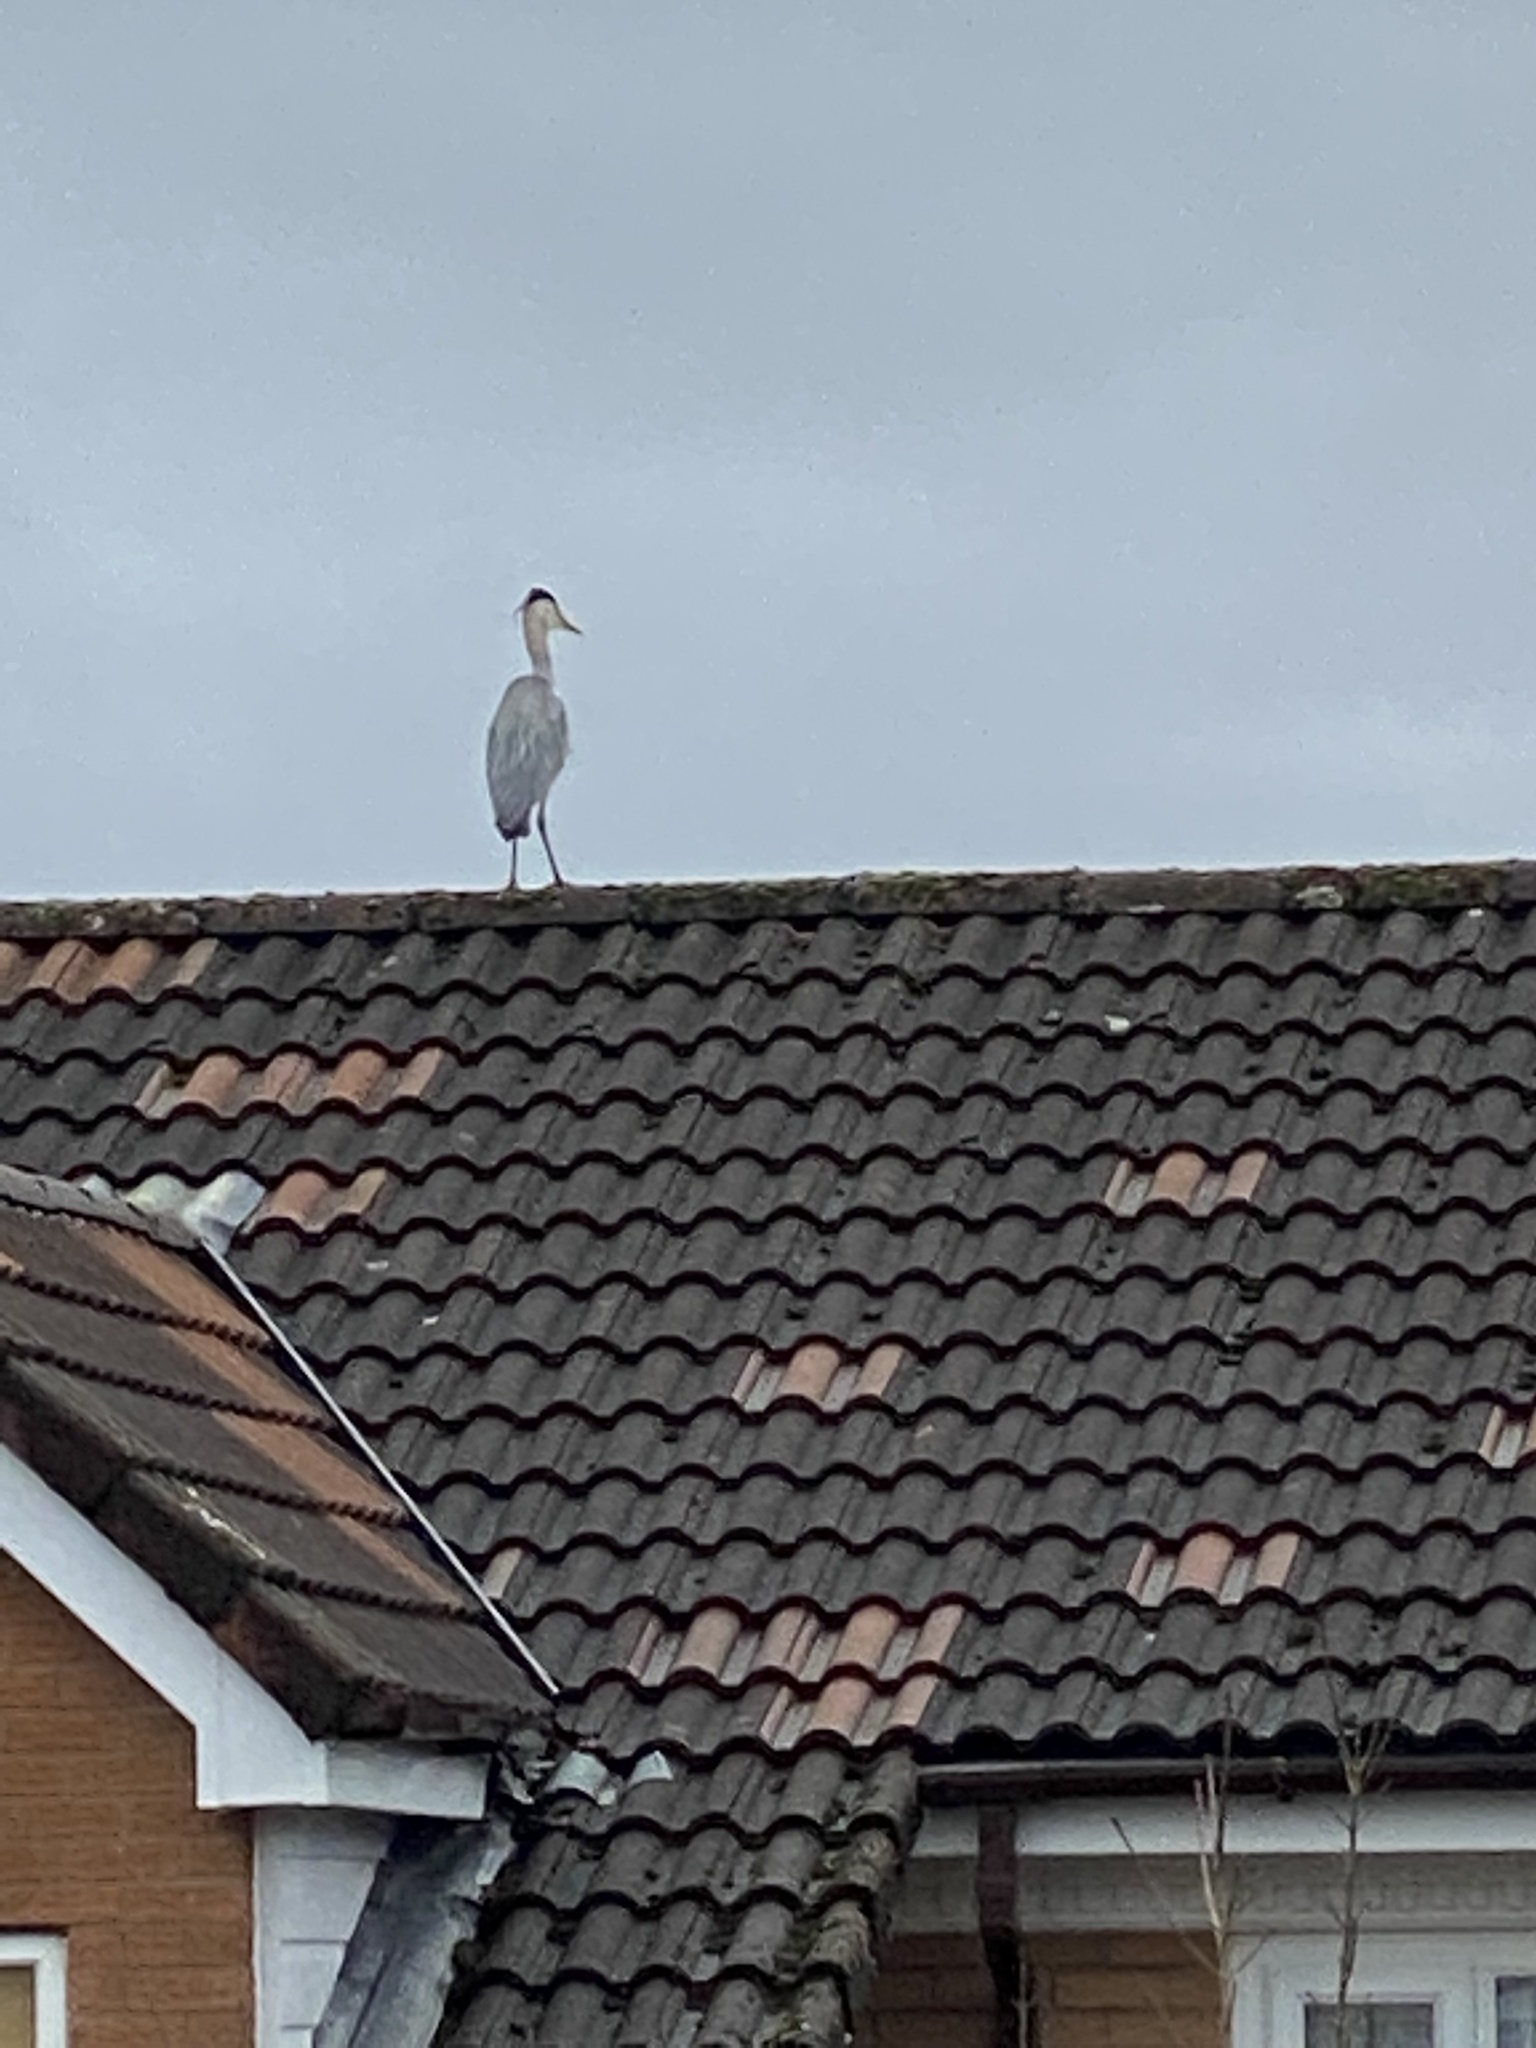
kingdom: Animalia
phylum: Chordata
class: Aves
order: Pelecaniformes
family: Ardeidae
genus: Ardea
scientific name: Ardea cinerea
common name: Grey heron
